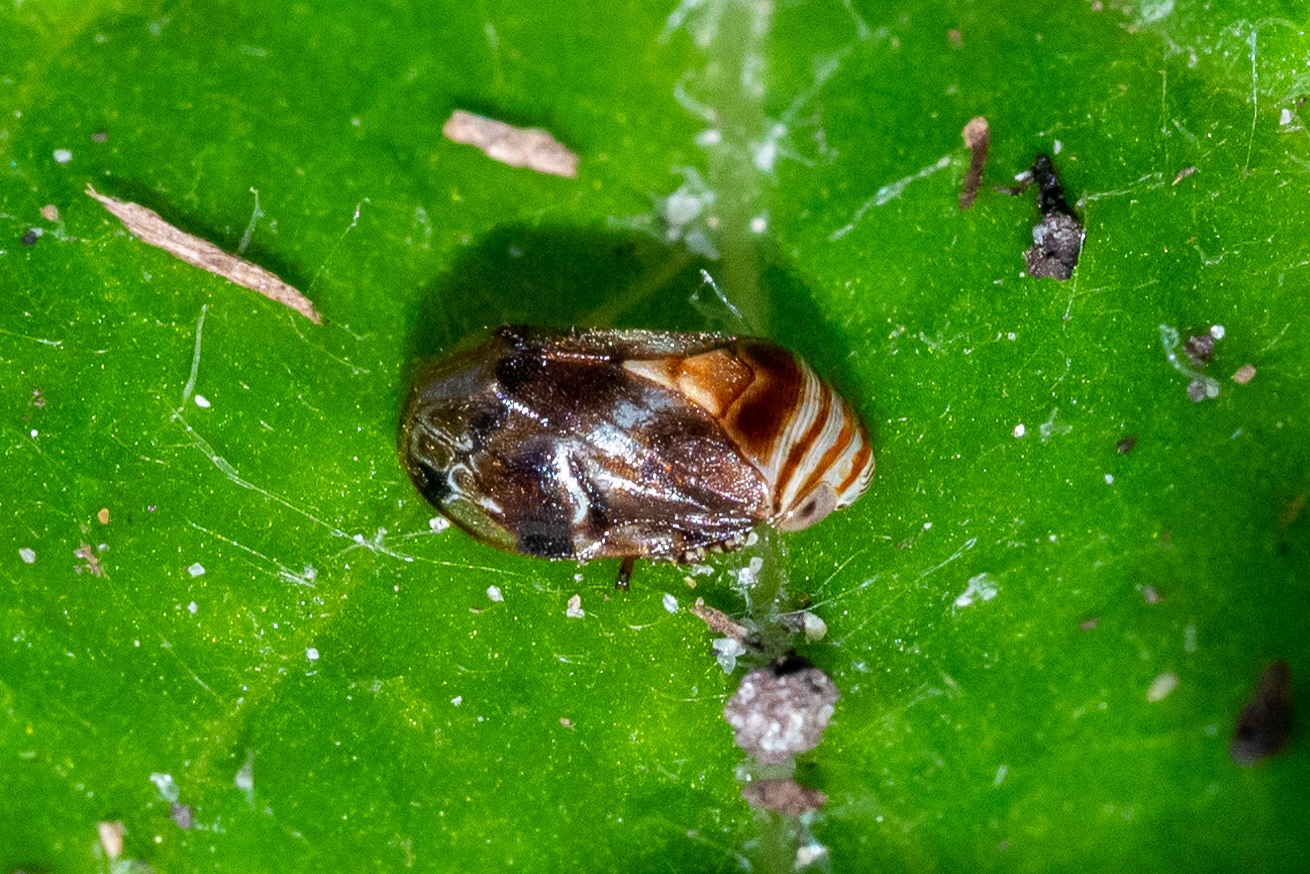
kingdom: Animalia
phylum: Arthropoda
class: Insecta
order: Hemiptera
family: Clastopteridae
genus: Clastoptera
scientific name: Clastoptera obtusa
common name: Alder spittlebug
